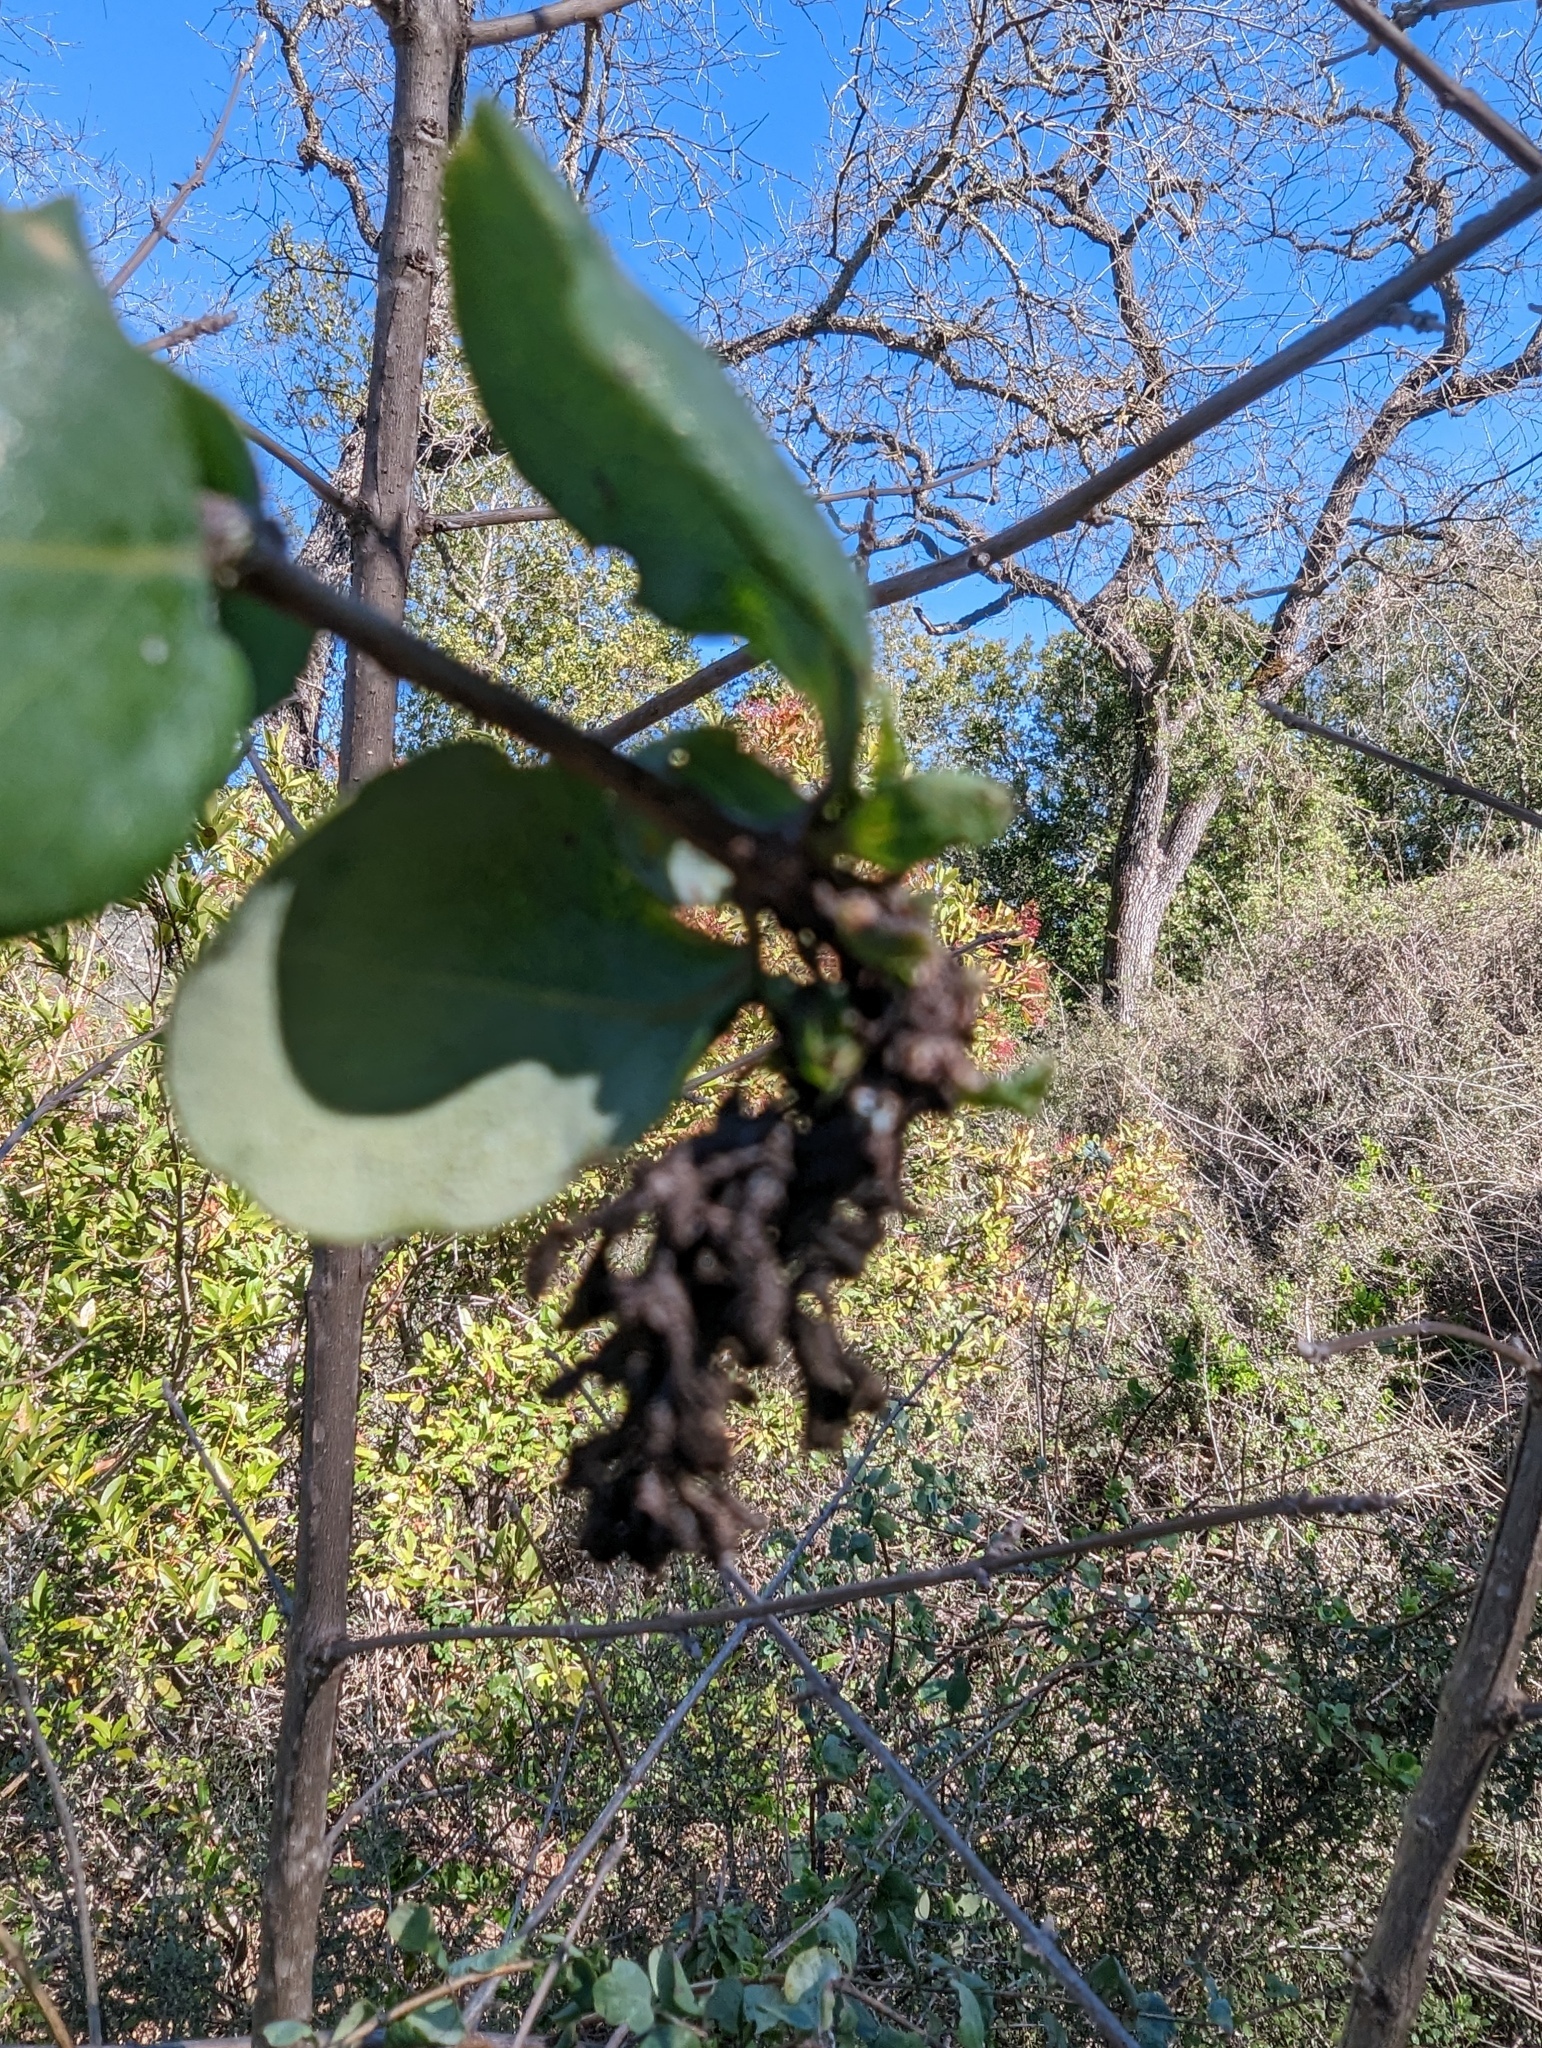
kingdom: Plantae
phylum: Tracheophyta
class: Magnoliopsida
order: Dipsacales
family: Caprifoliaceae
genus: Lonicera
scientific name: Lonicera subspicata
